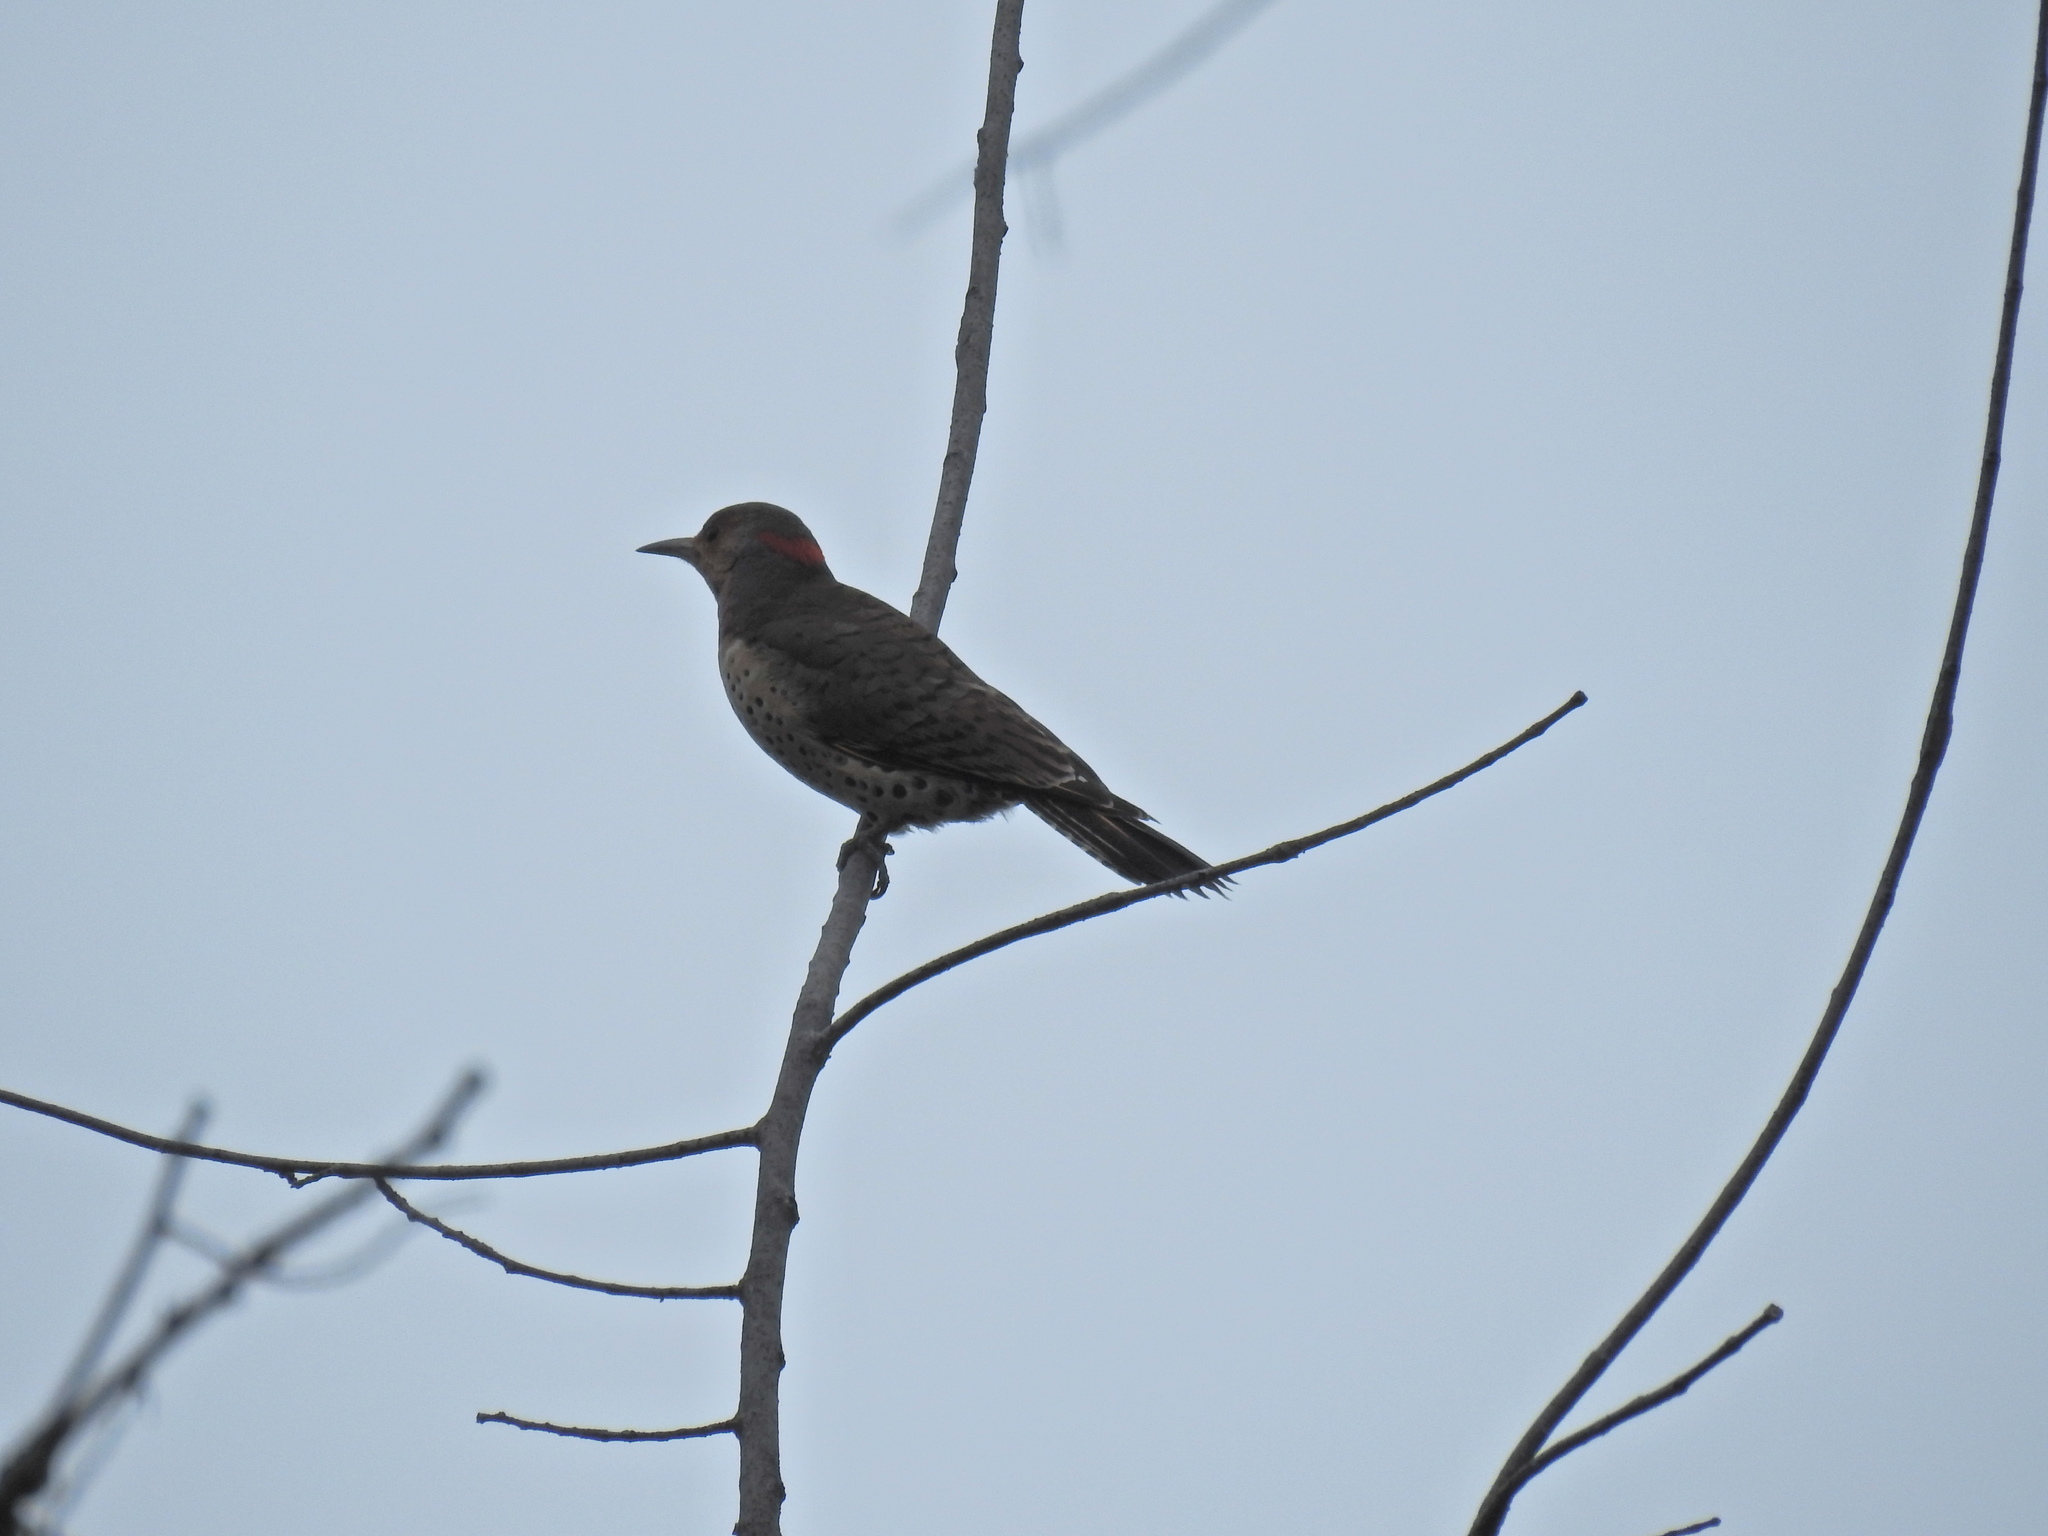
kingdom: Animalia
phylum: Chordata
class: Aves
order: Piciformes
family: Picidae
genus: Colaptes
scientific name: Colaptes auratus
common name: Northern flicker
